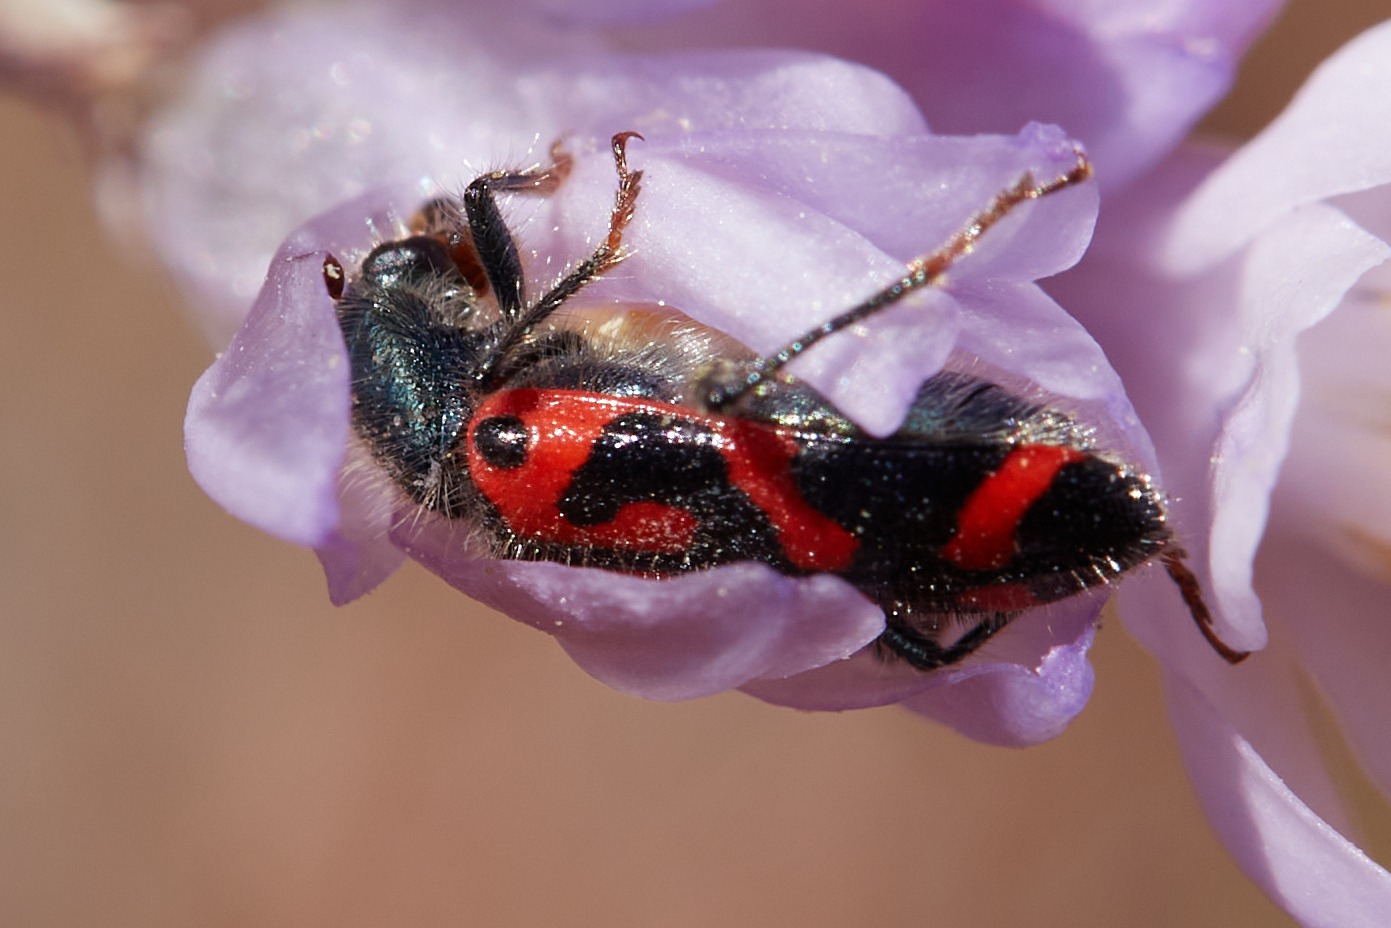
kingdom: Animalia
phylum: Arthropoda
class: Insecta
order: Coleoptera
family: Cleridae
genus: Trichodes
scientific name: Trichodes ornatus
